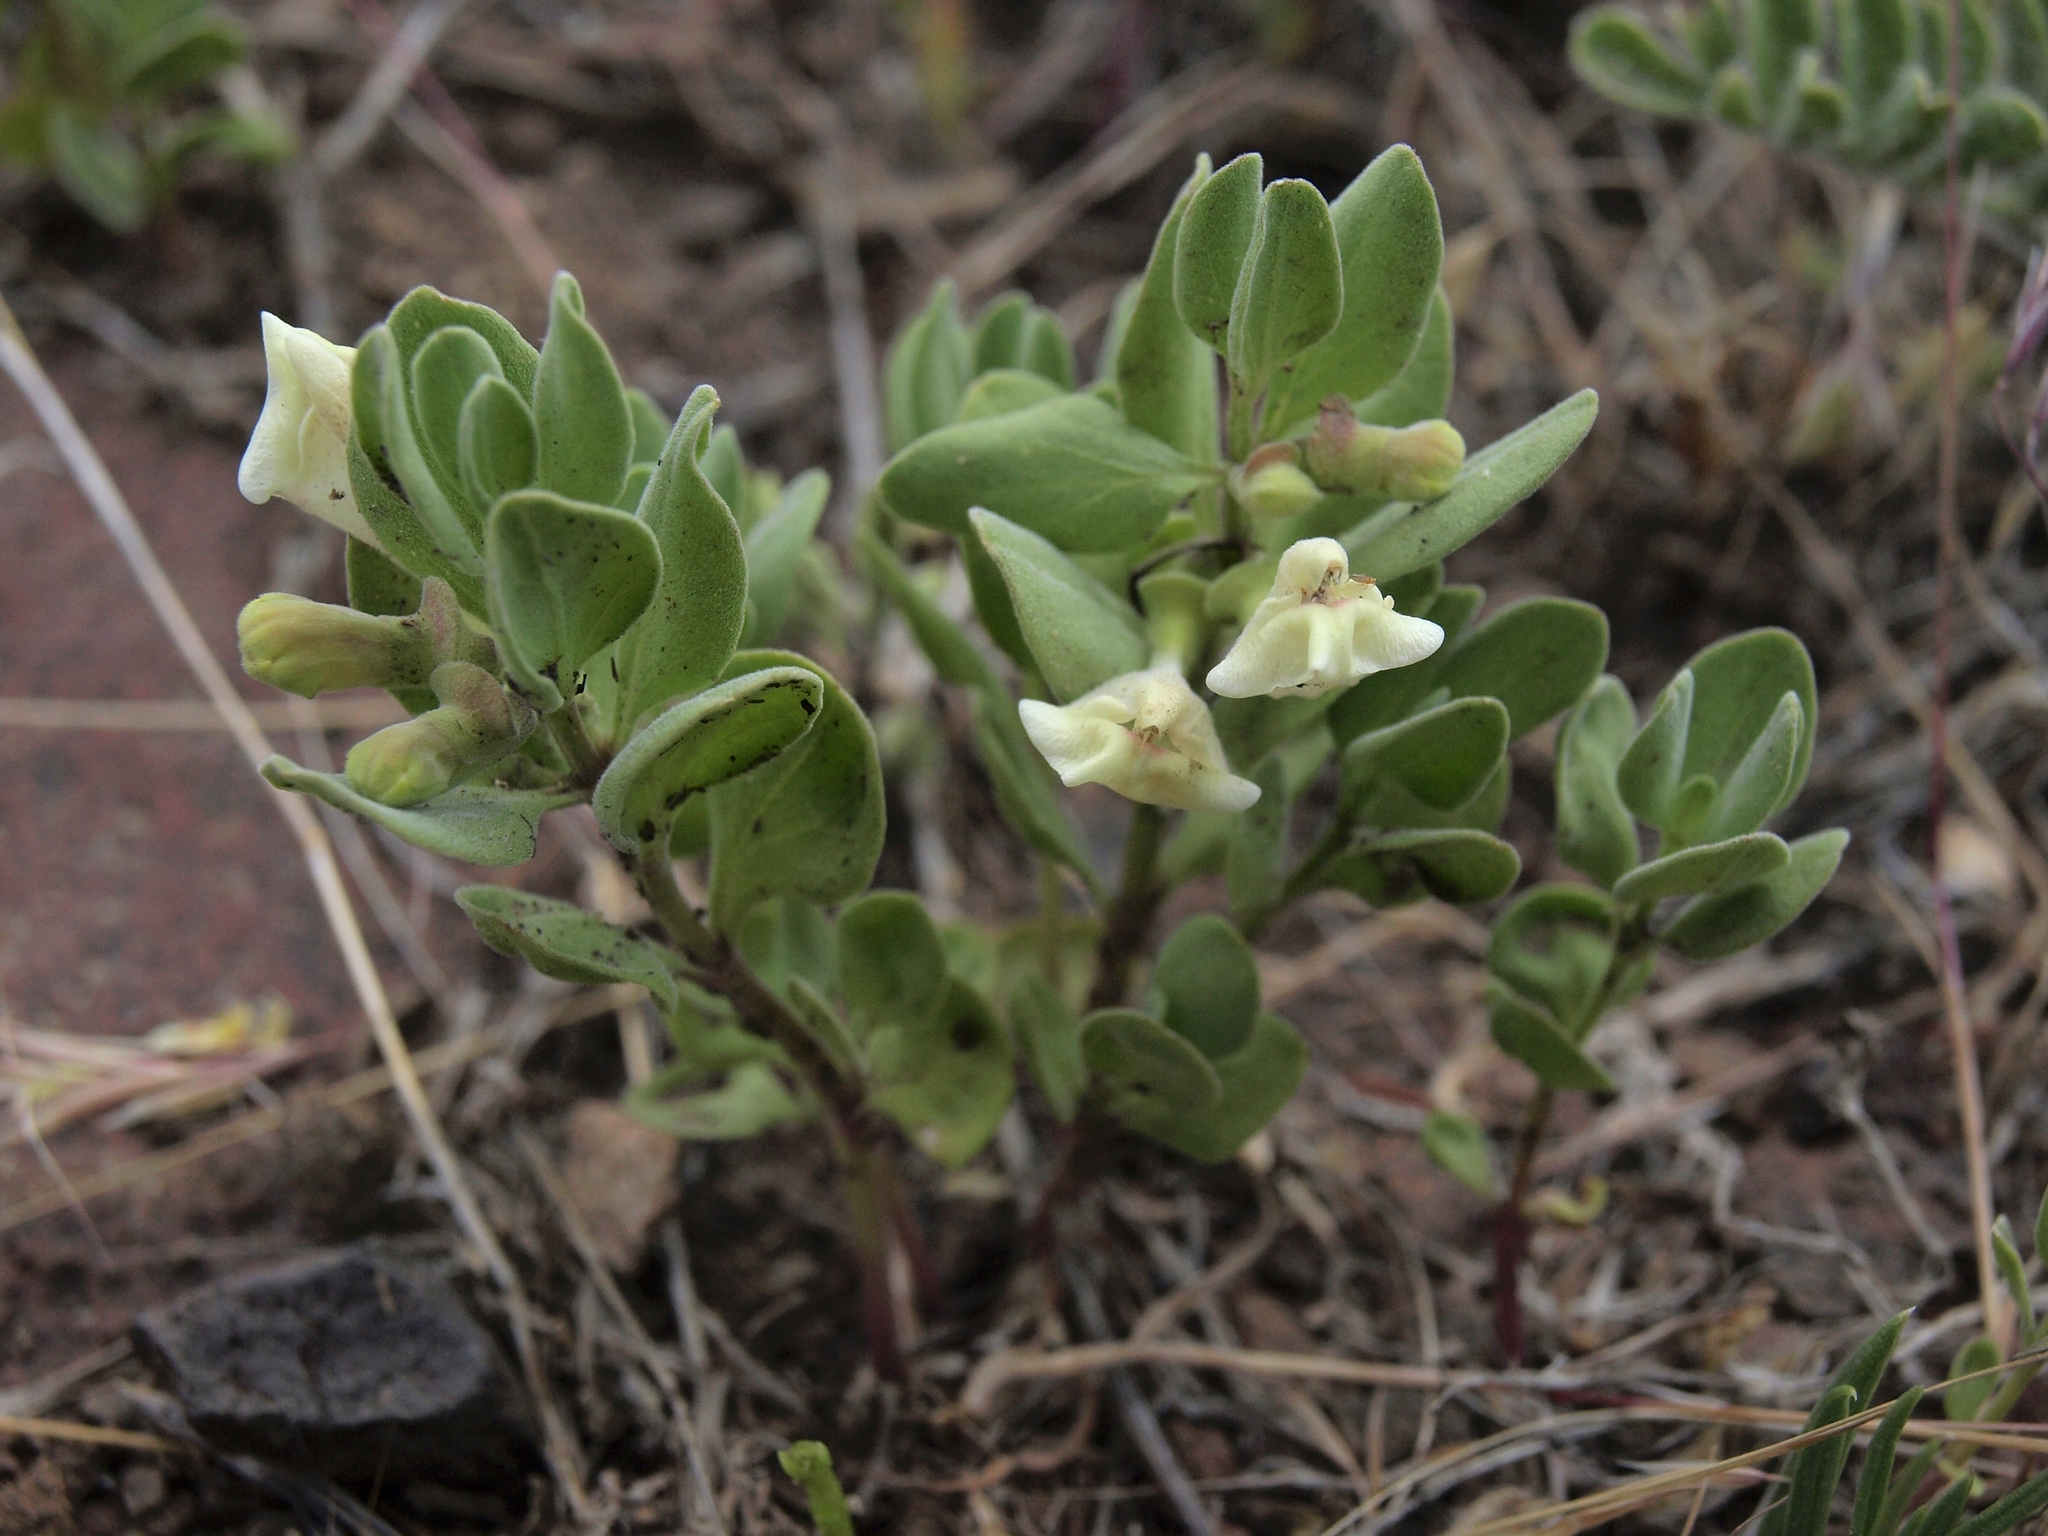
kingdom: Plantae
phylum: Tracheophyta
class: Magnoliopsida
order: Lamiales
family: Lamiaceae
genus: Scutellaria
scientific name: Scutellaria nana
